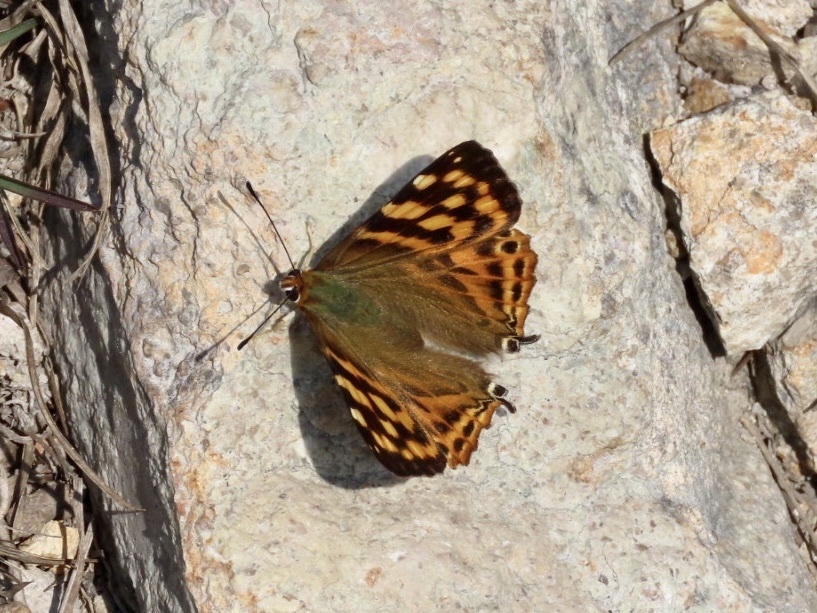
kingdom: Animalia
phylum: Arthropoda
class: Insecta
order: Lepidoptera
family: Lycaenidae
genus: Dodona
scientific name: Dodona egeon
